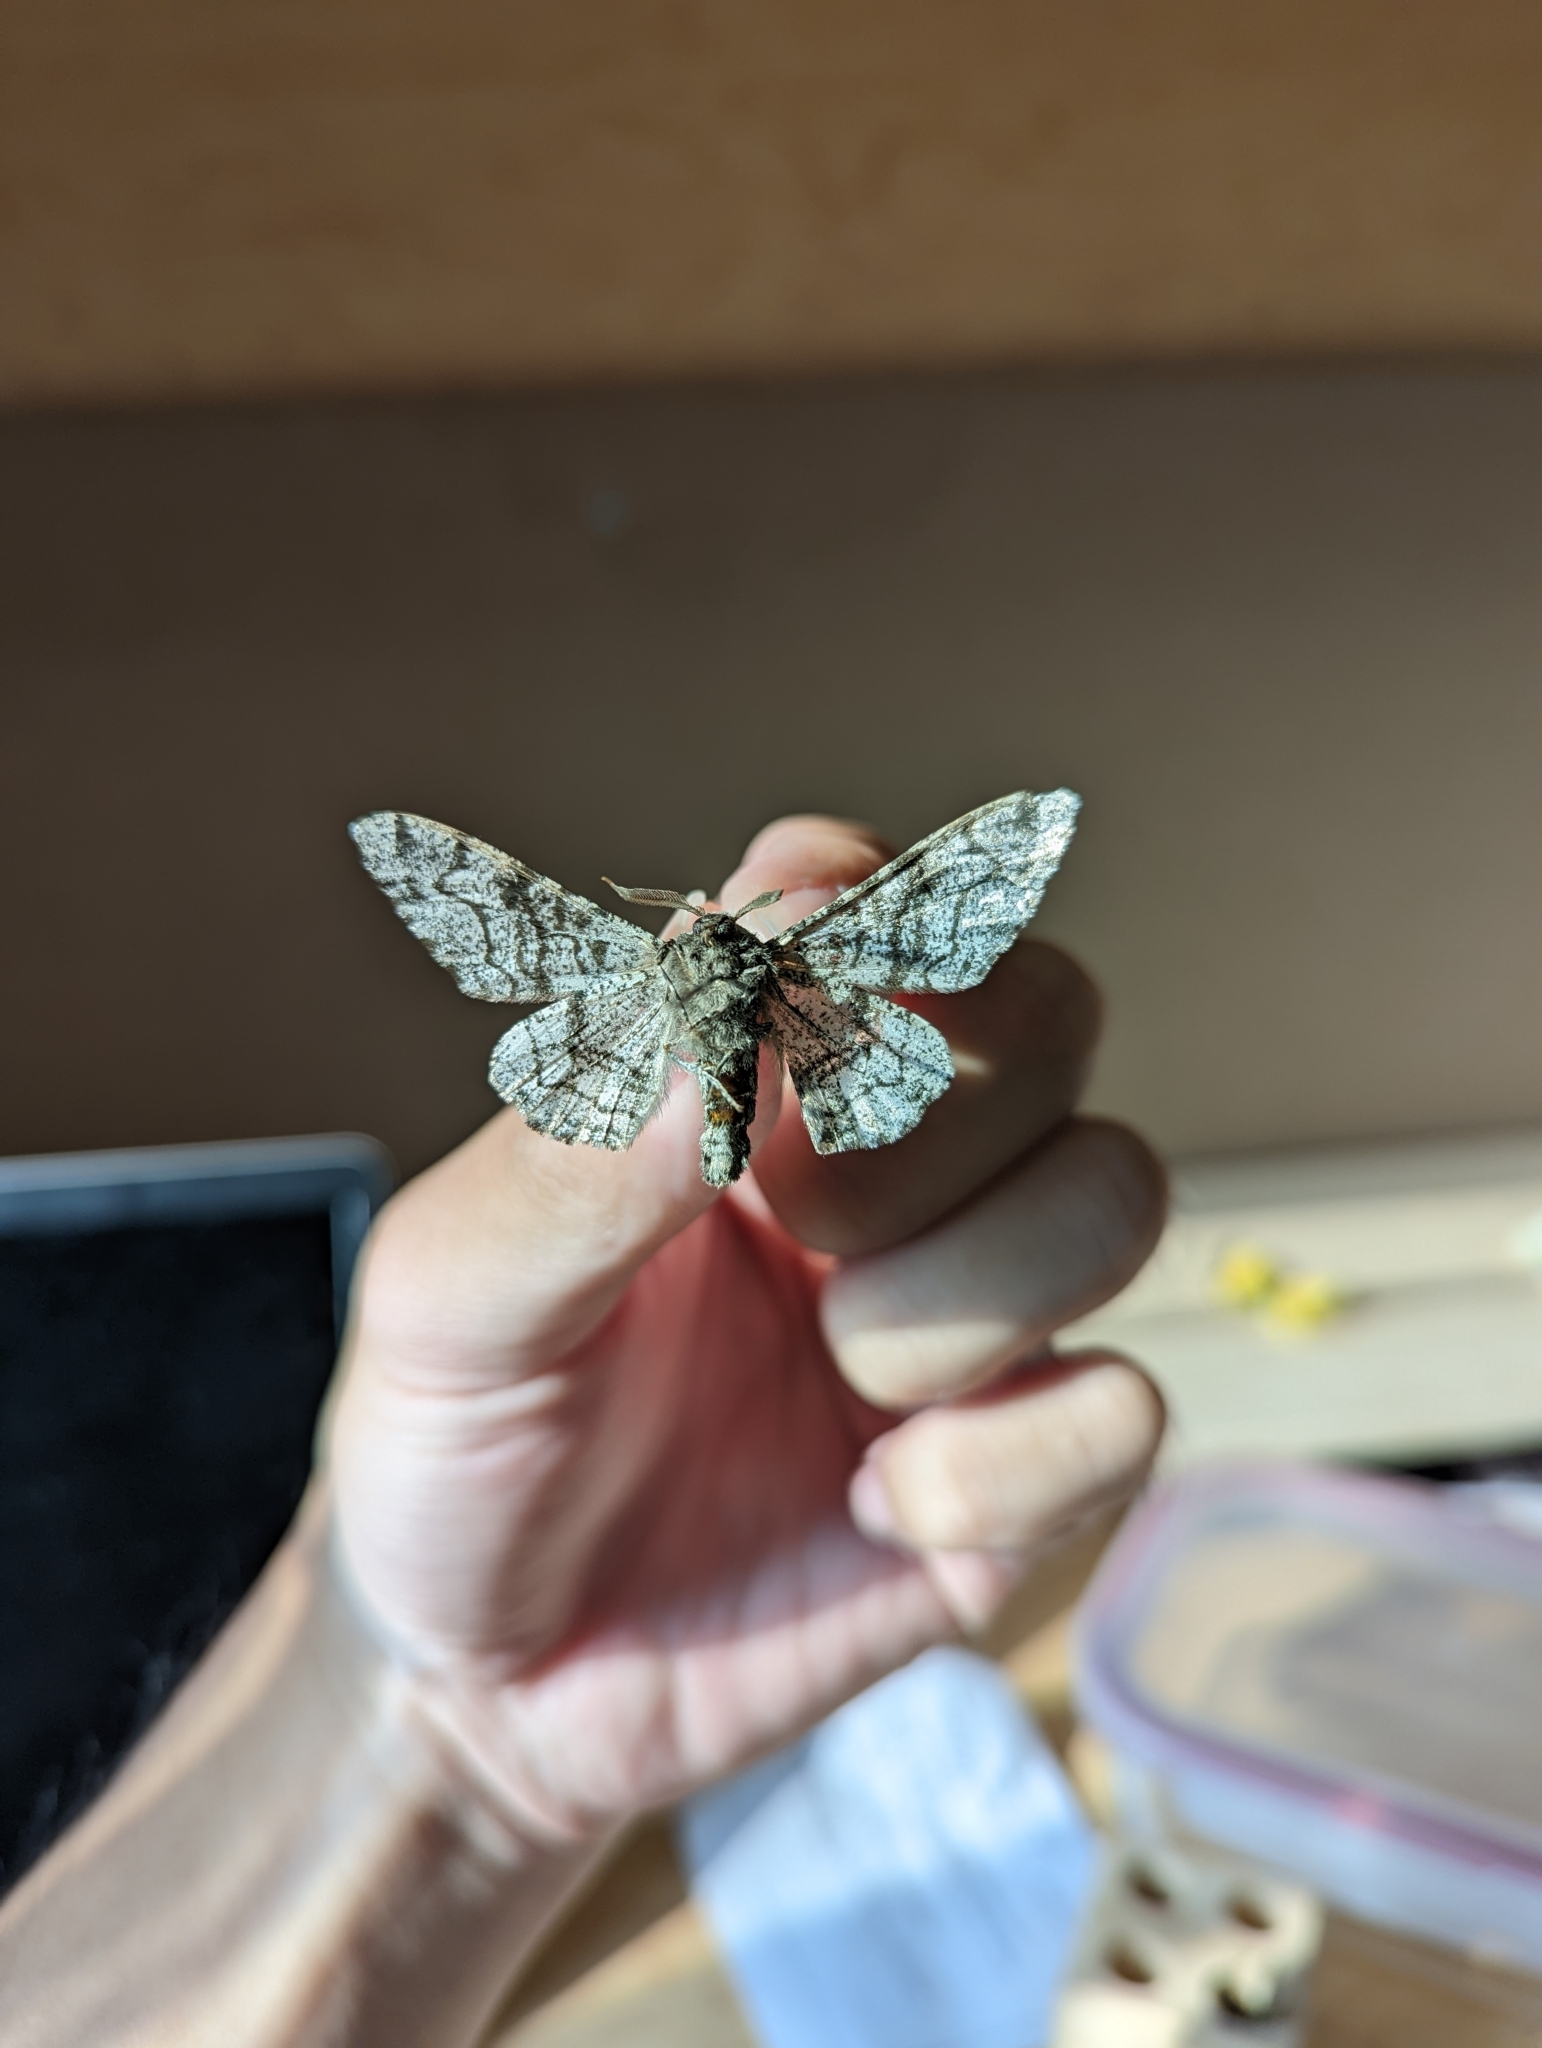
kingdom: Animalia
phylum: Arthropoda
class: Insecta
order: Lepidoptera
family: Geometridae
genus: Biston
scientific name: Biston betularia
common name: Peppered moth
